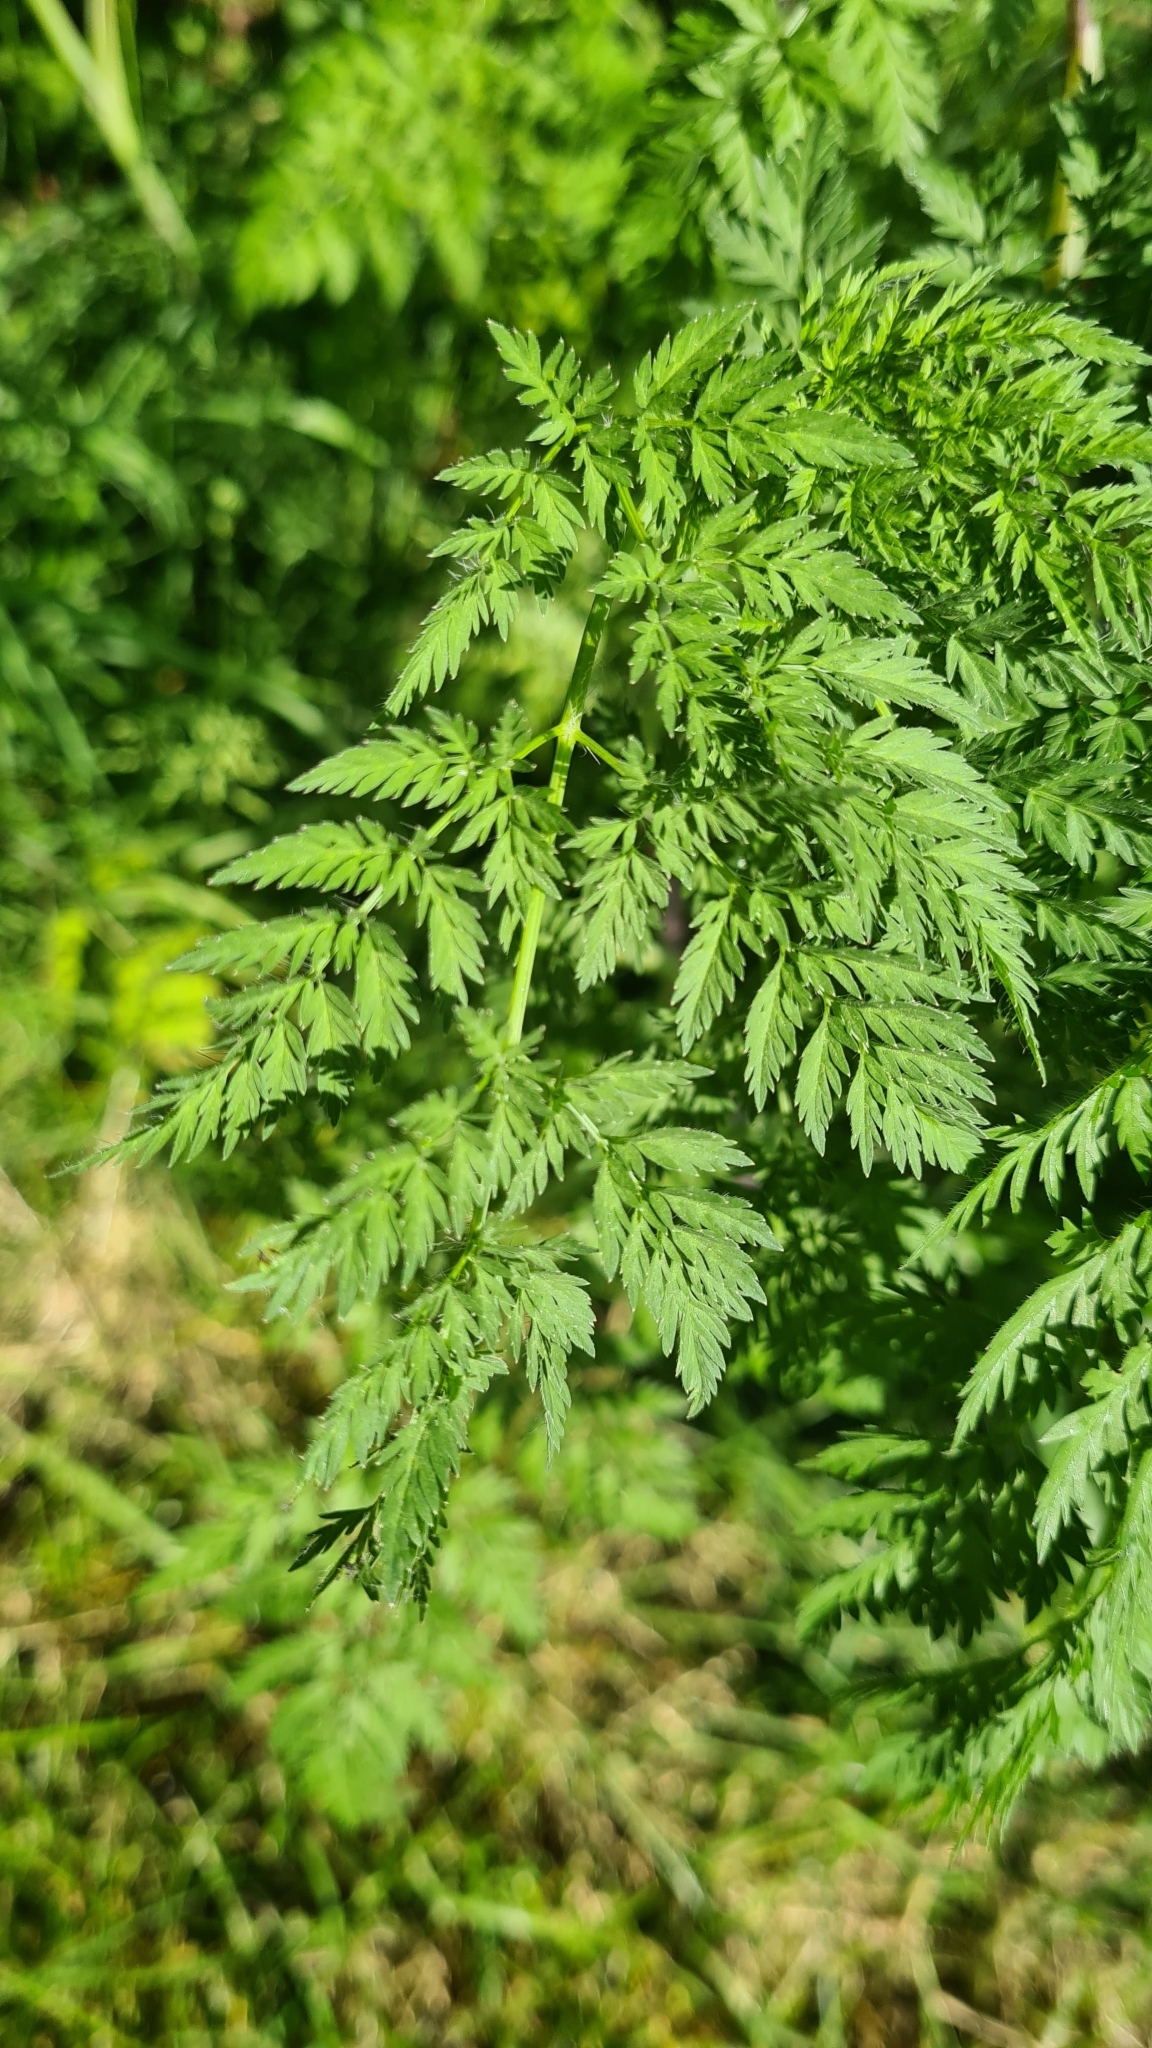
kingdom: Plantae
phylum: Tracheophyta
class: Magnoliopsida
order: Apiales
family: Apiaceae
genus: Chaerophyllum
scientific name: Chaerophyllum bulbosum
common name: Bulbous chervil
